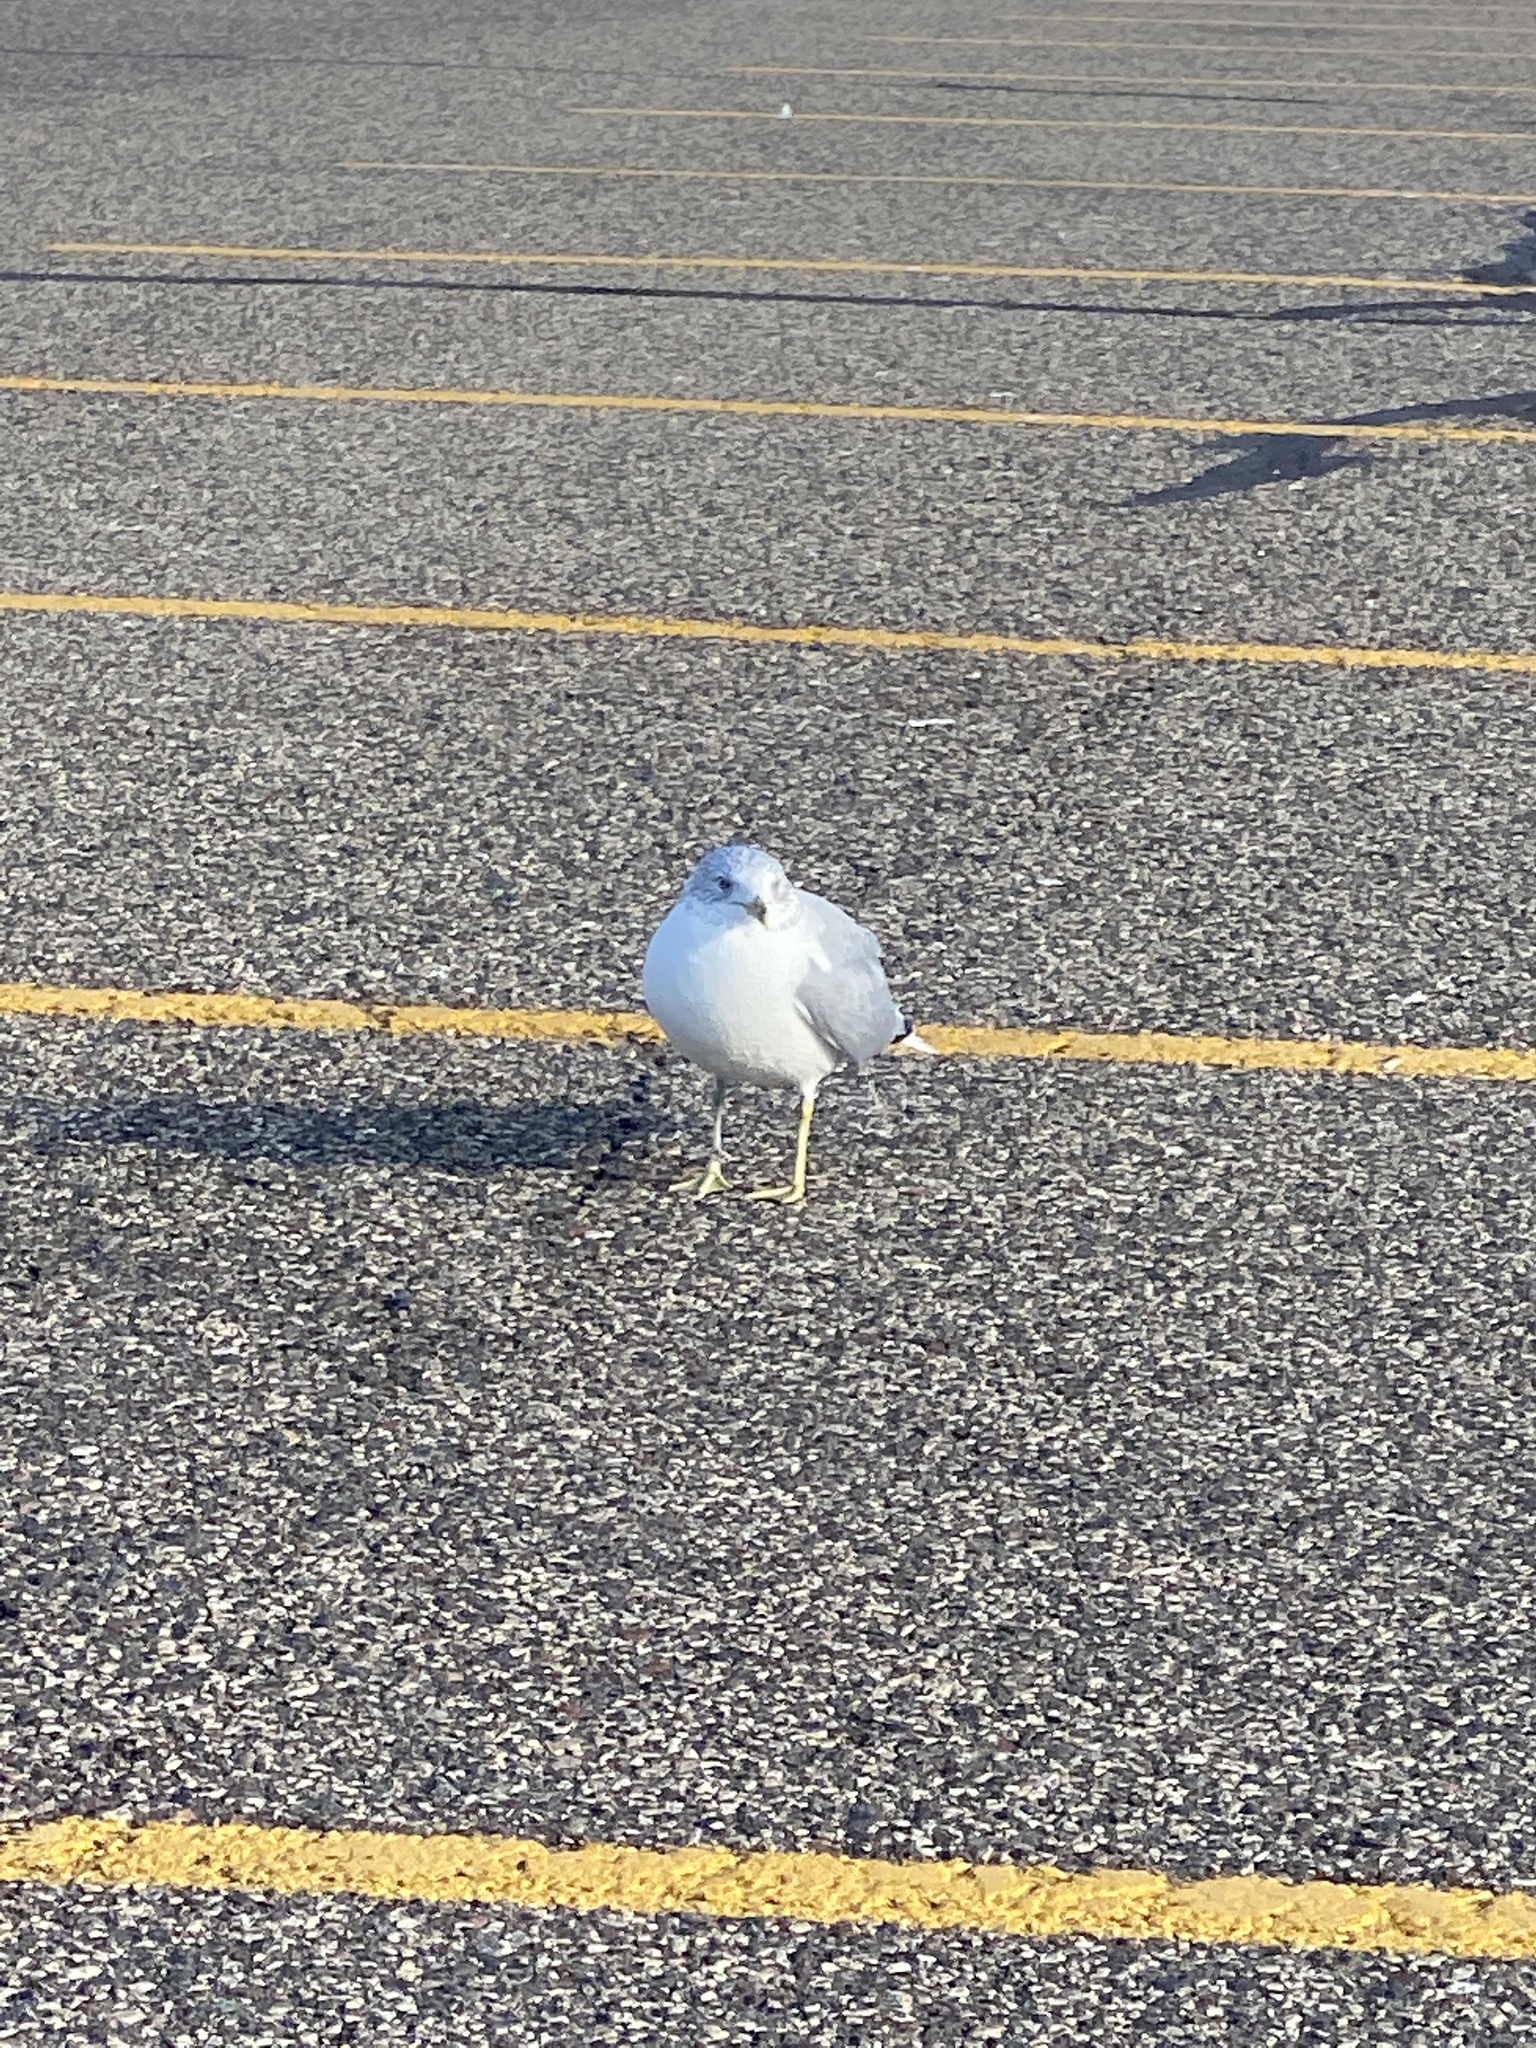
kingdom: Animalia
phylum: Chordata
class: Aves
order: Charadriiformes
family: Laridae
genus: Larus
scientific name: Larus delawarensis
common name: Ring-billed gull
